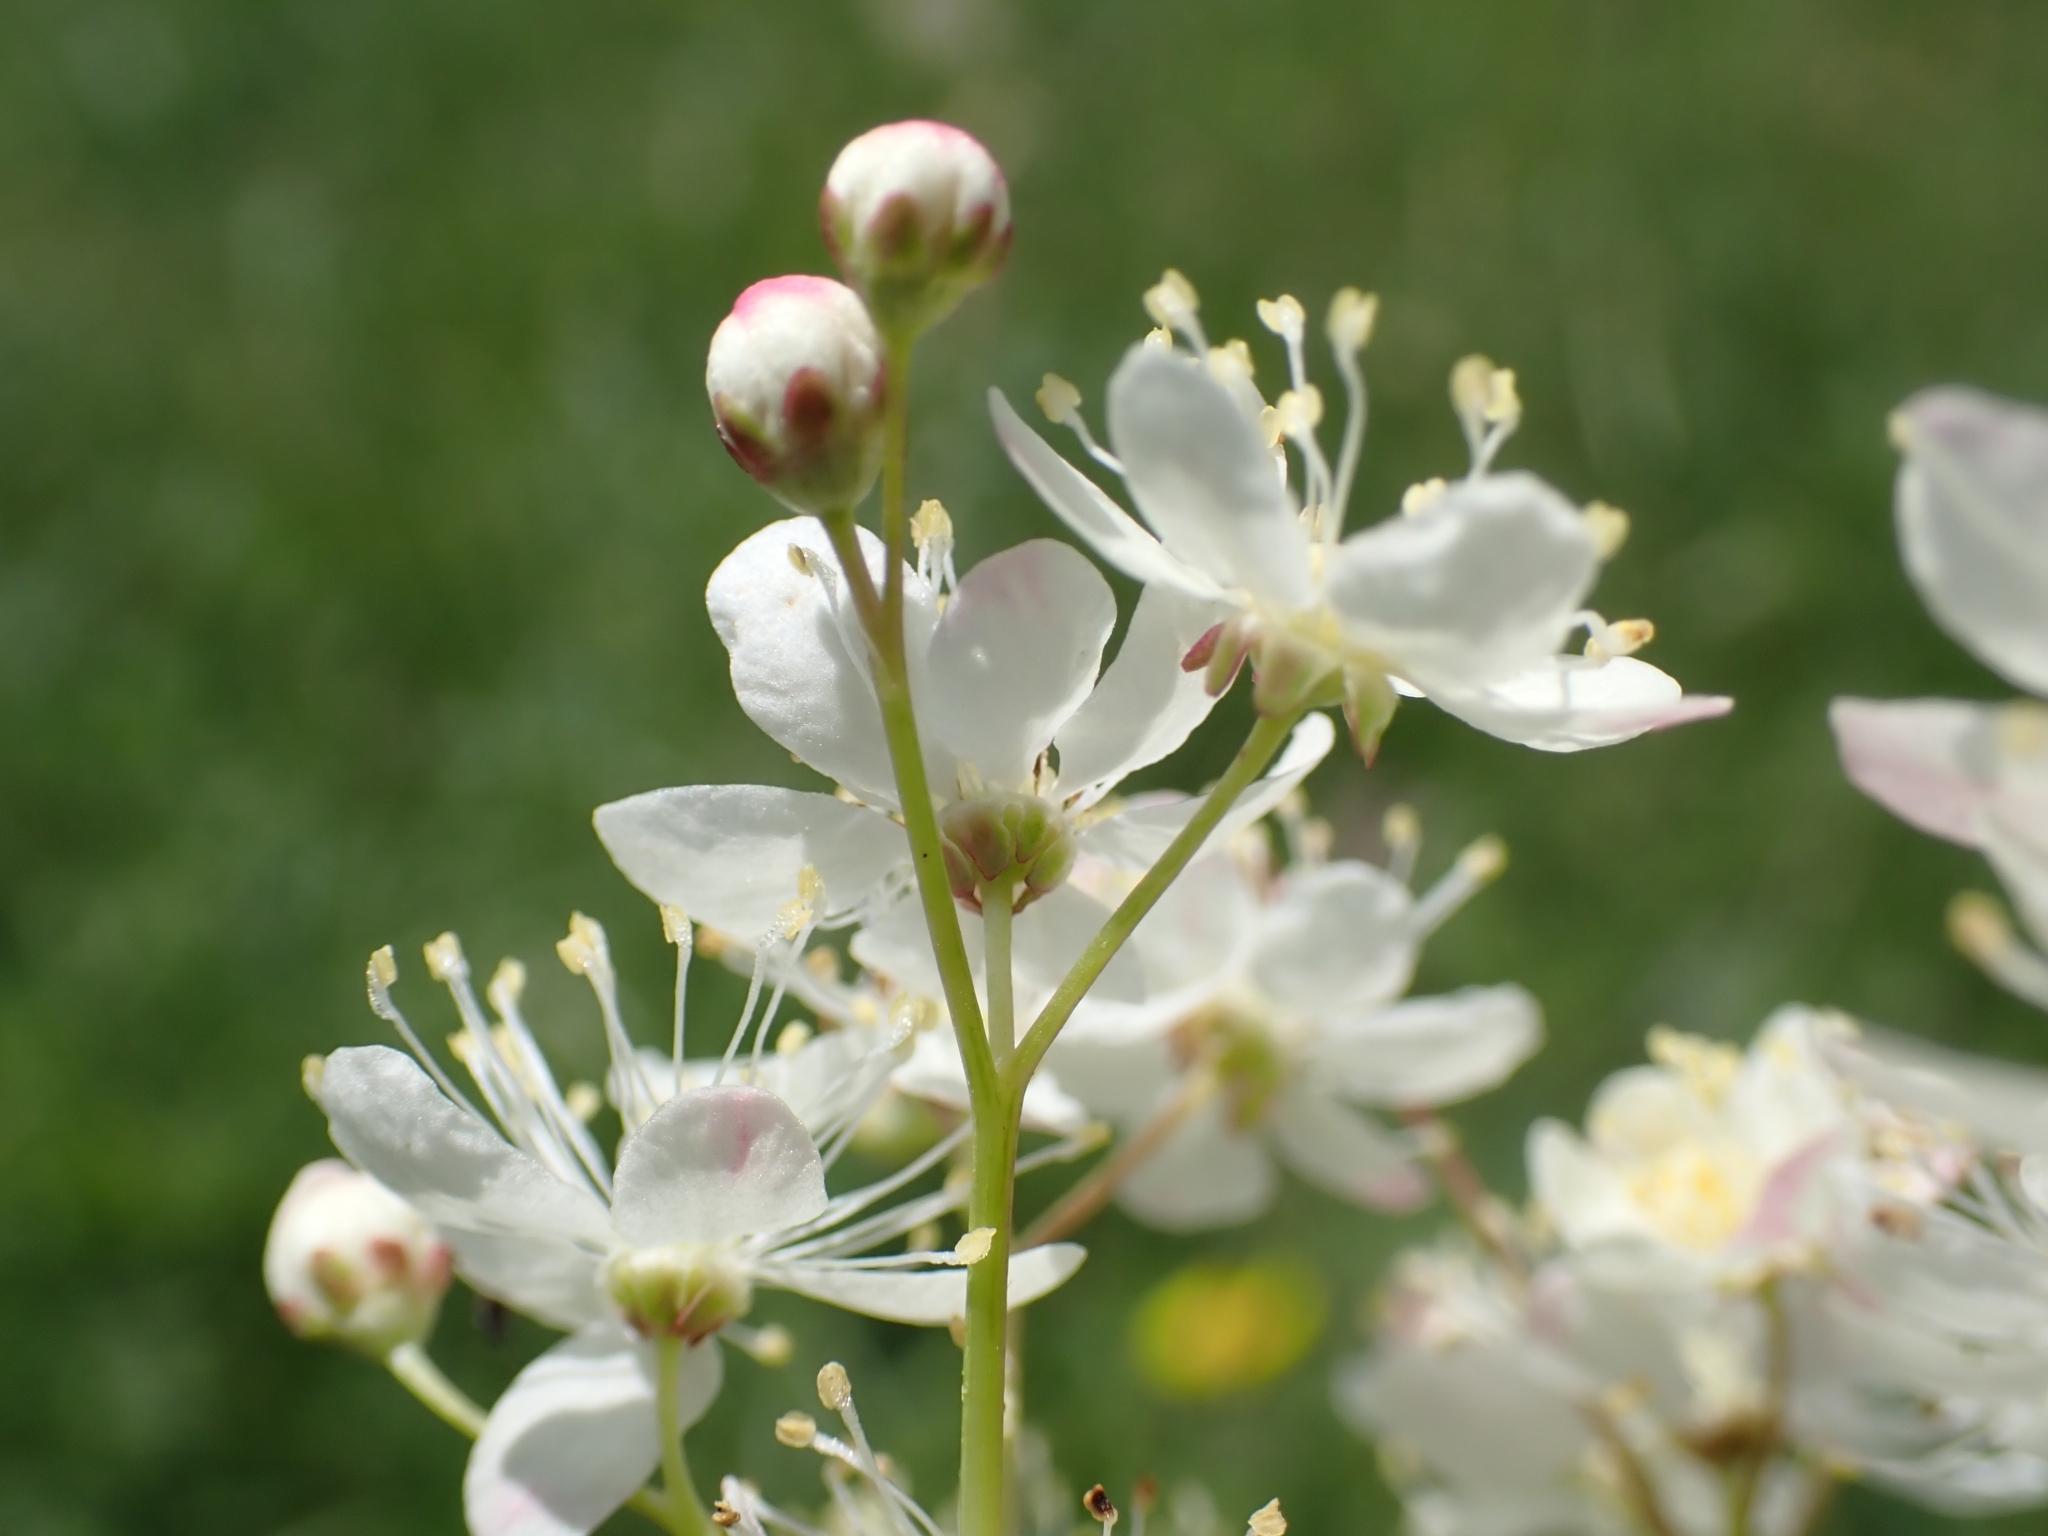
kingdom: Plantae
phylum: Tracheophyta
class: Magnoliopsida
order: Rosales
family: Rosaceae
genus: Filipendula
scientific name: Filipendula vulgaris
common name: Dropwort
